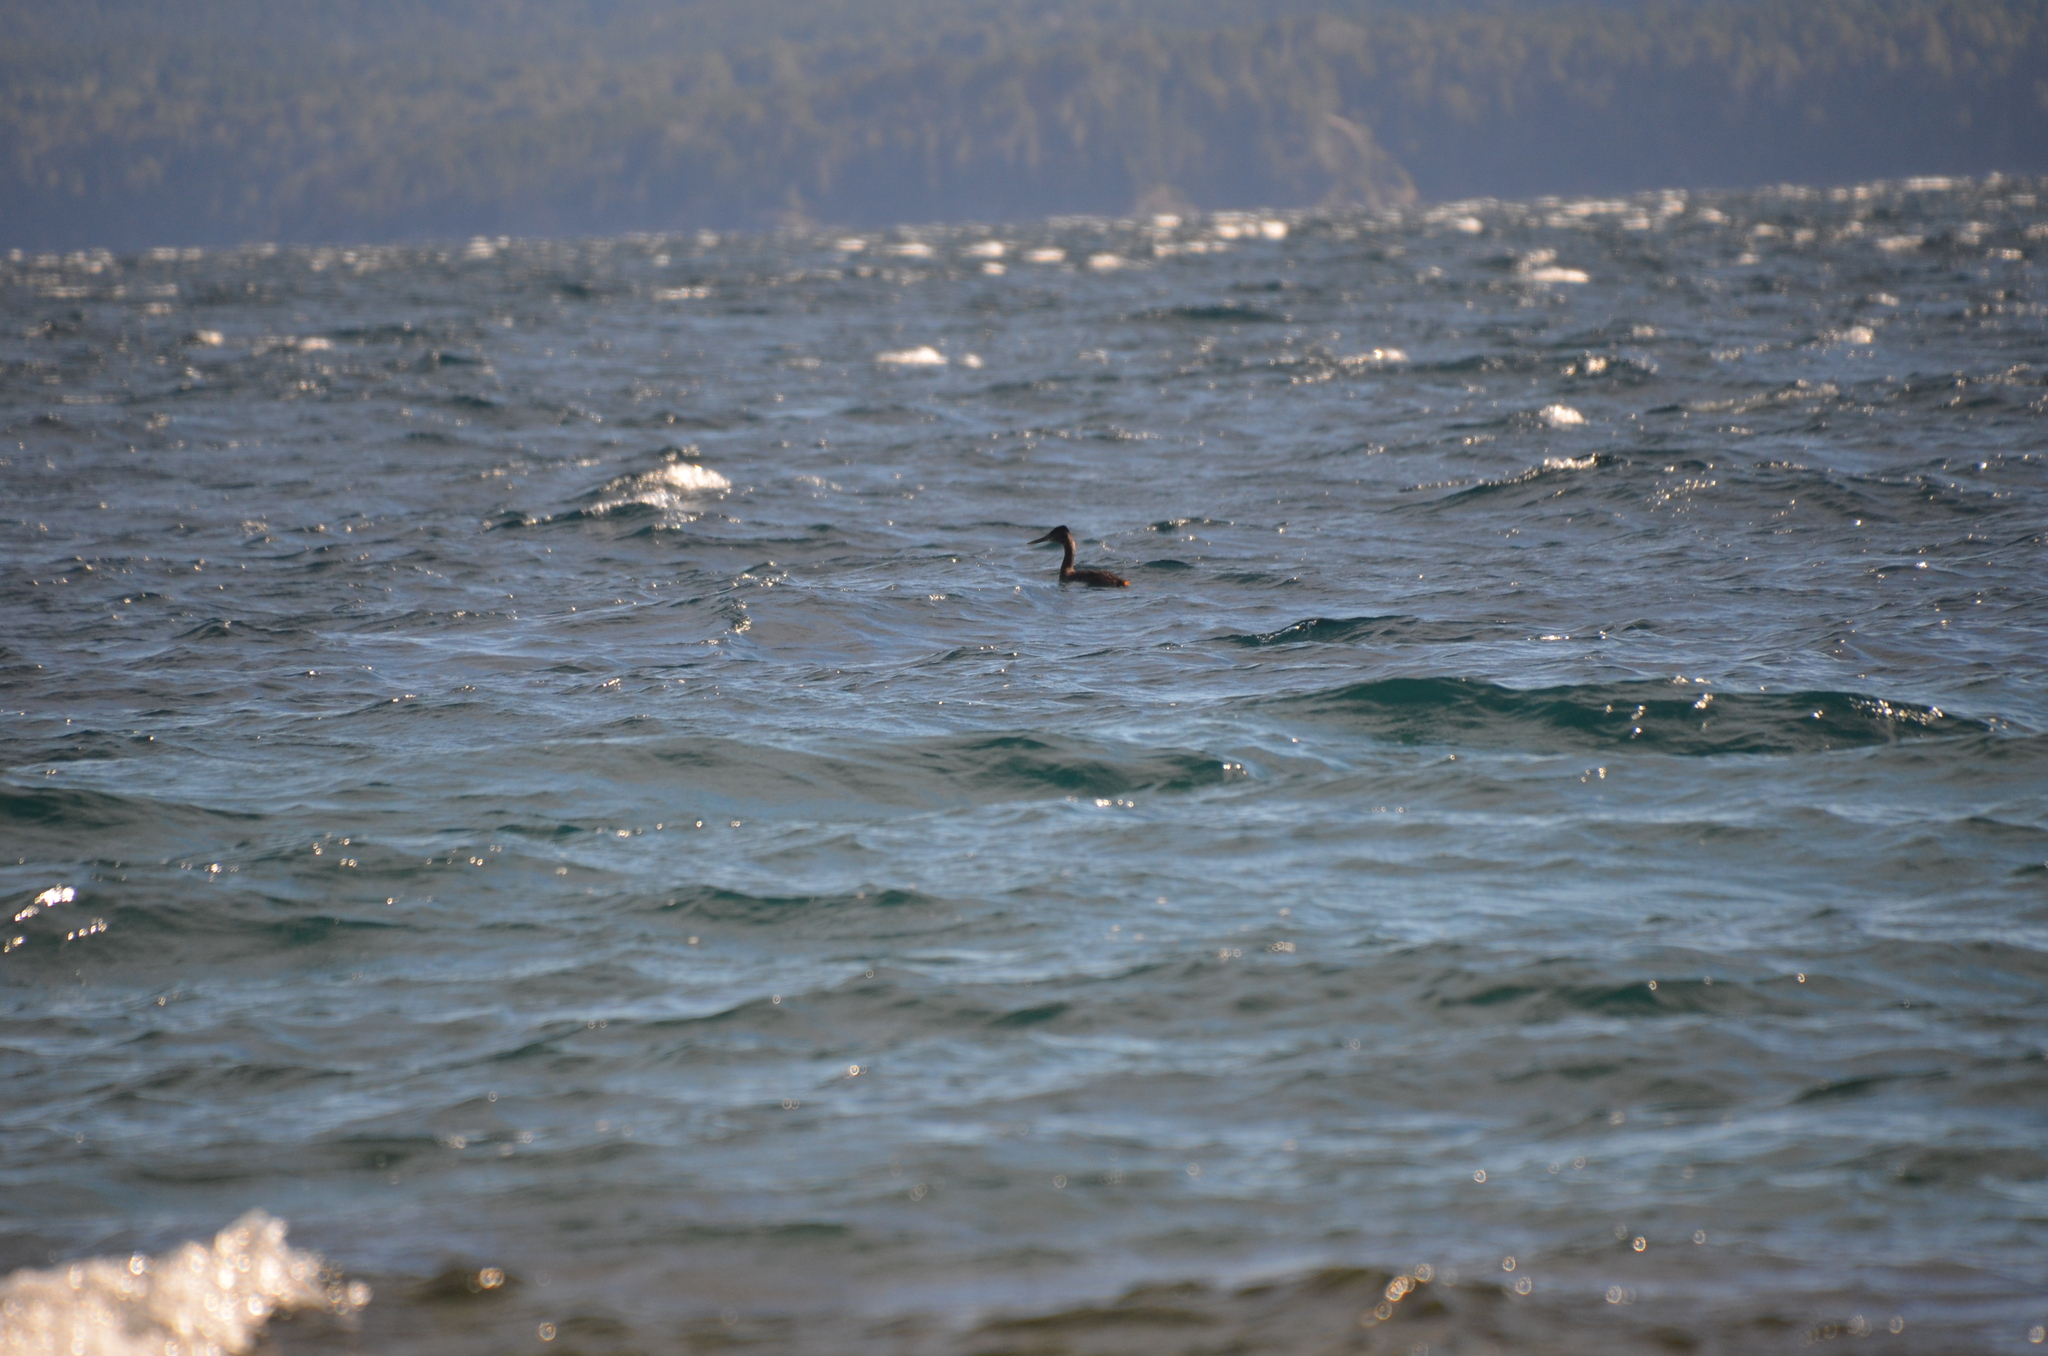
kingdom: Animalia
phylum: Chordata
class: Aves
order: Podicipediformes
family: Podicipedidae
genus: Podiceps
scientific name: Podiceps major
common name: Great grebe
